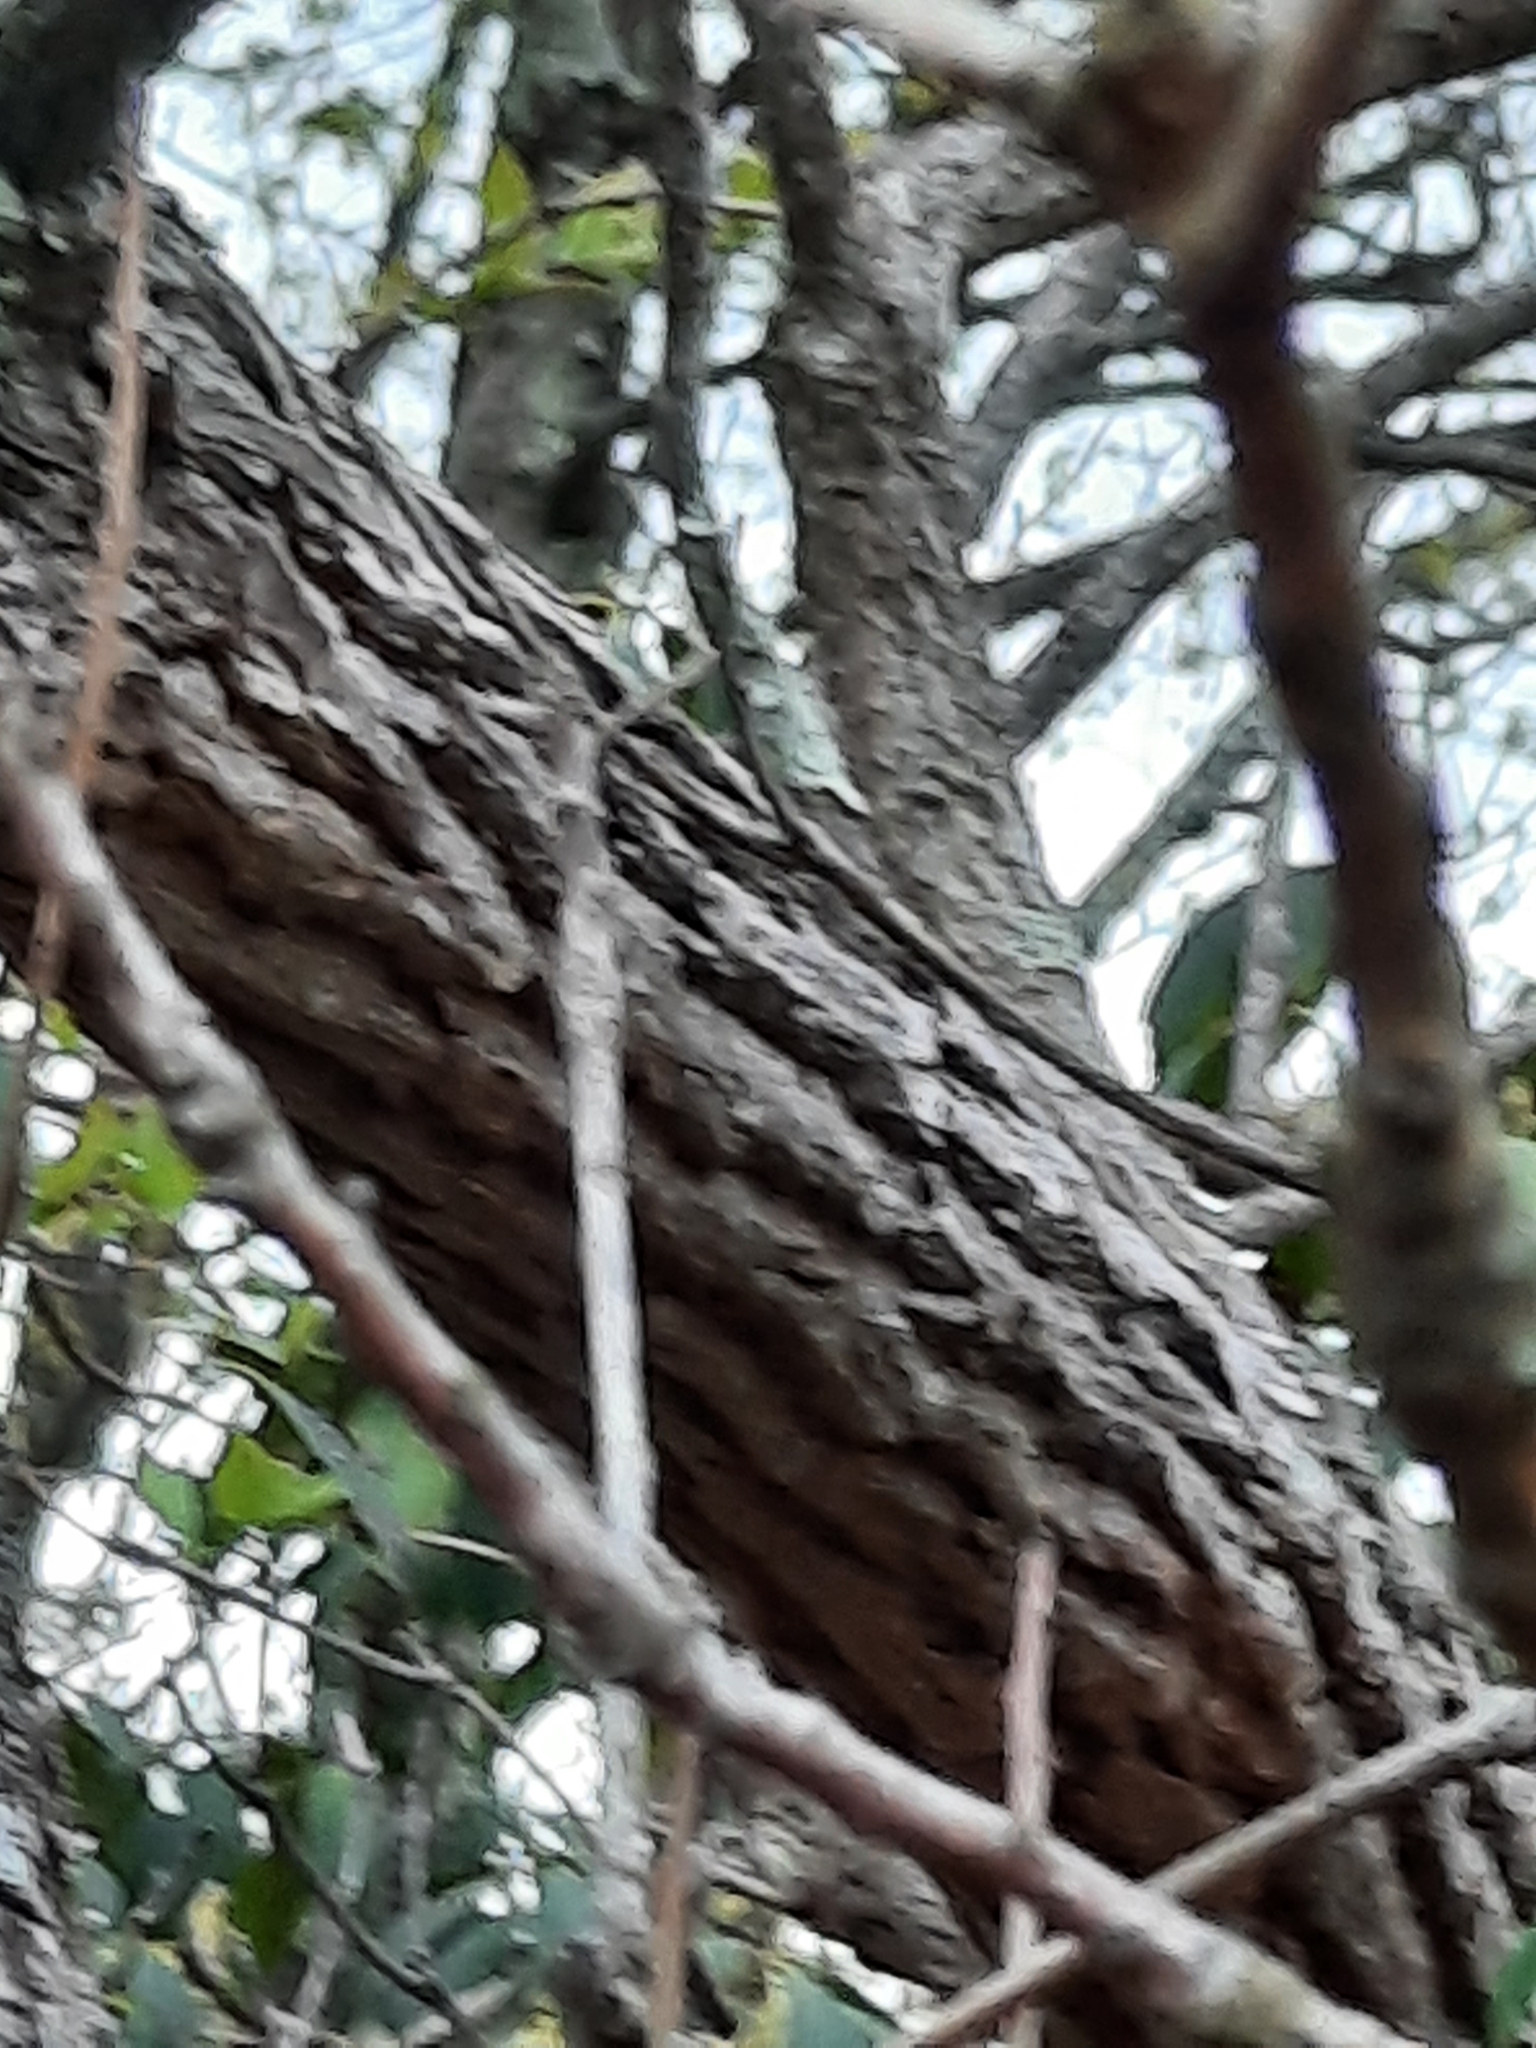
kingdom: Plantae
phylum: Tracheophyta
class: Magnoliopsida
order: Laurales
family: Lauraceae
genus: Sassafras
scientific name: Sassafras albidum
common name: Sassafras
